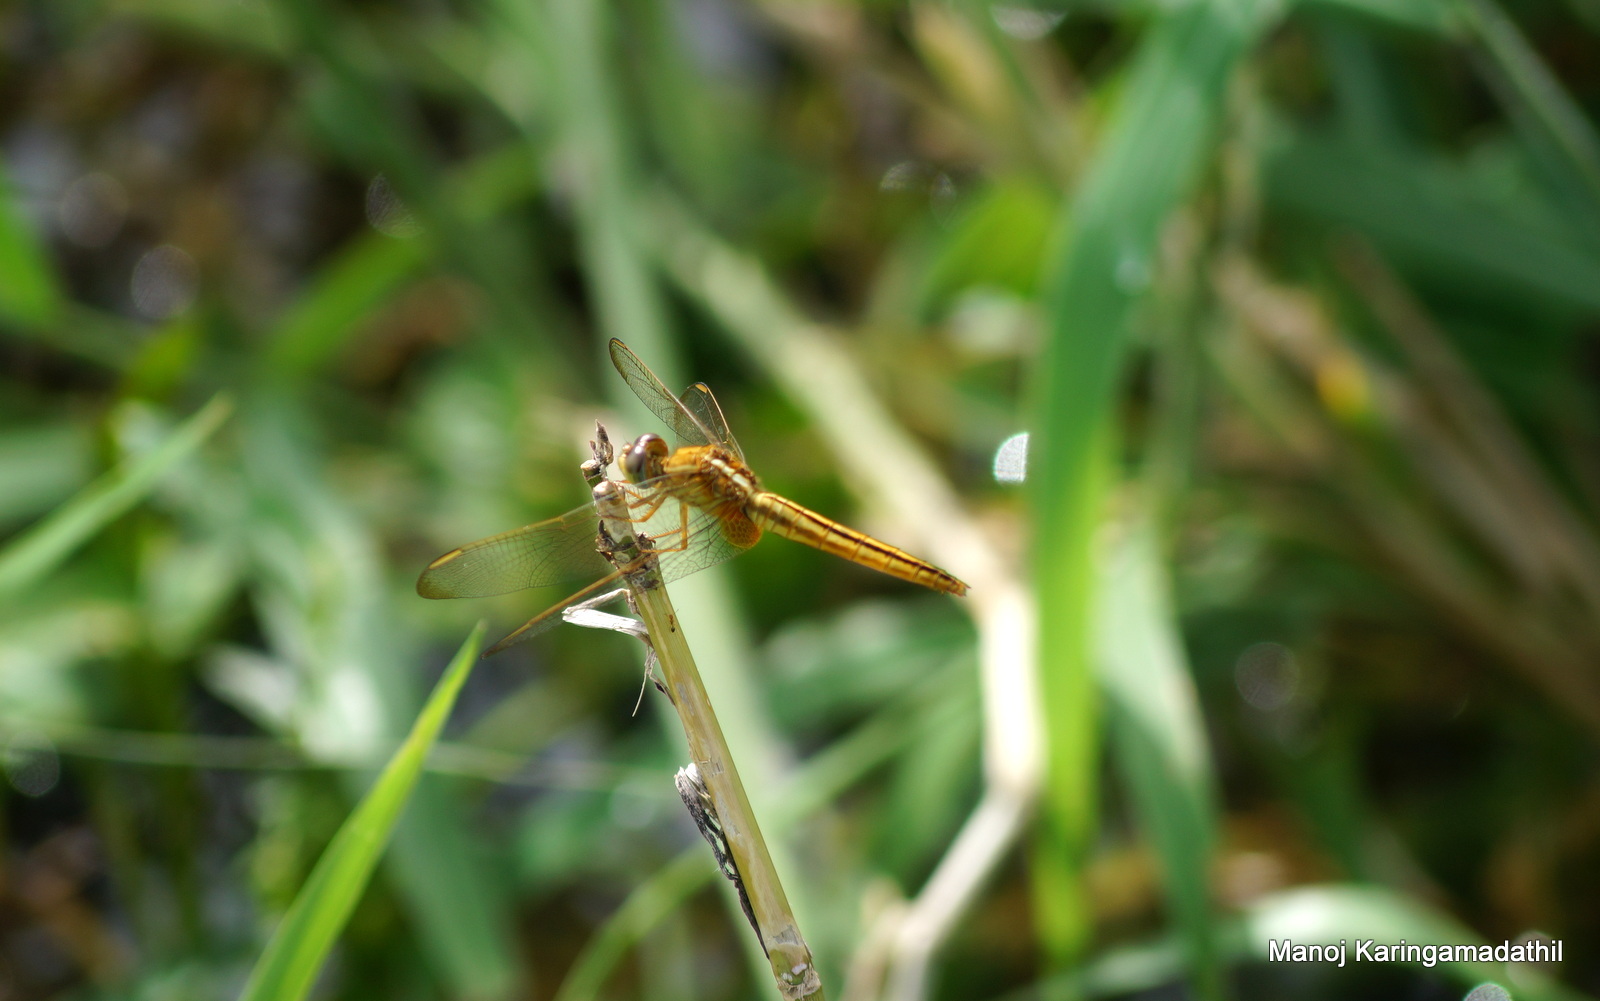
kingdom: Animalia
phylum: Arthropoda
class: Insecta
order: Odonata
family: Libellulidae
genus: Crocothemis
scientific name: Crocothemis servilia
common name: Scarlet skimmer
